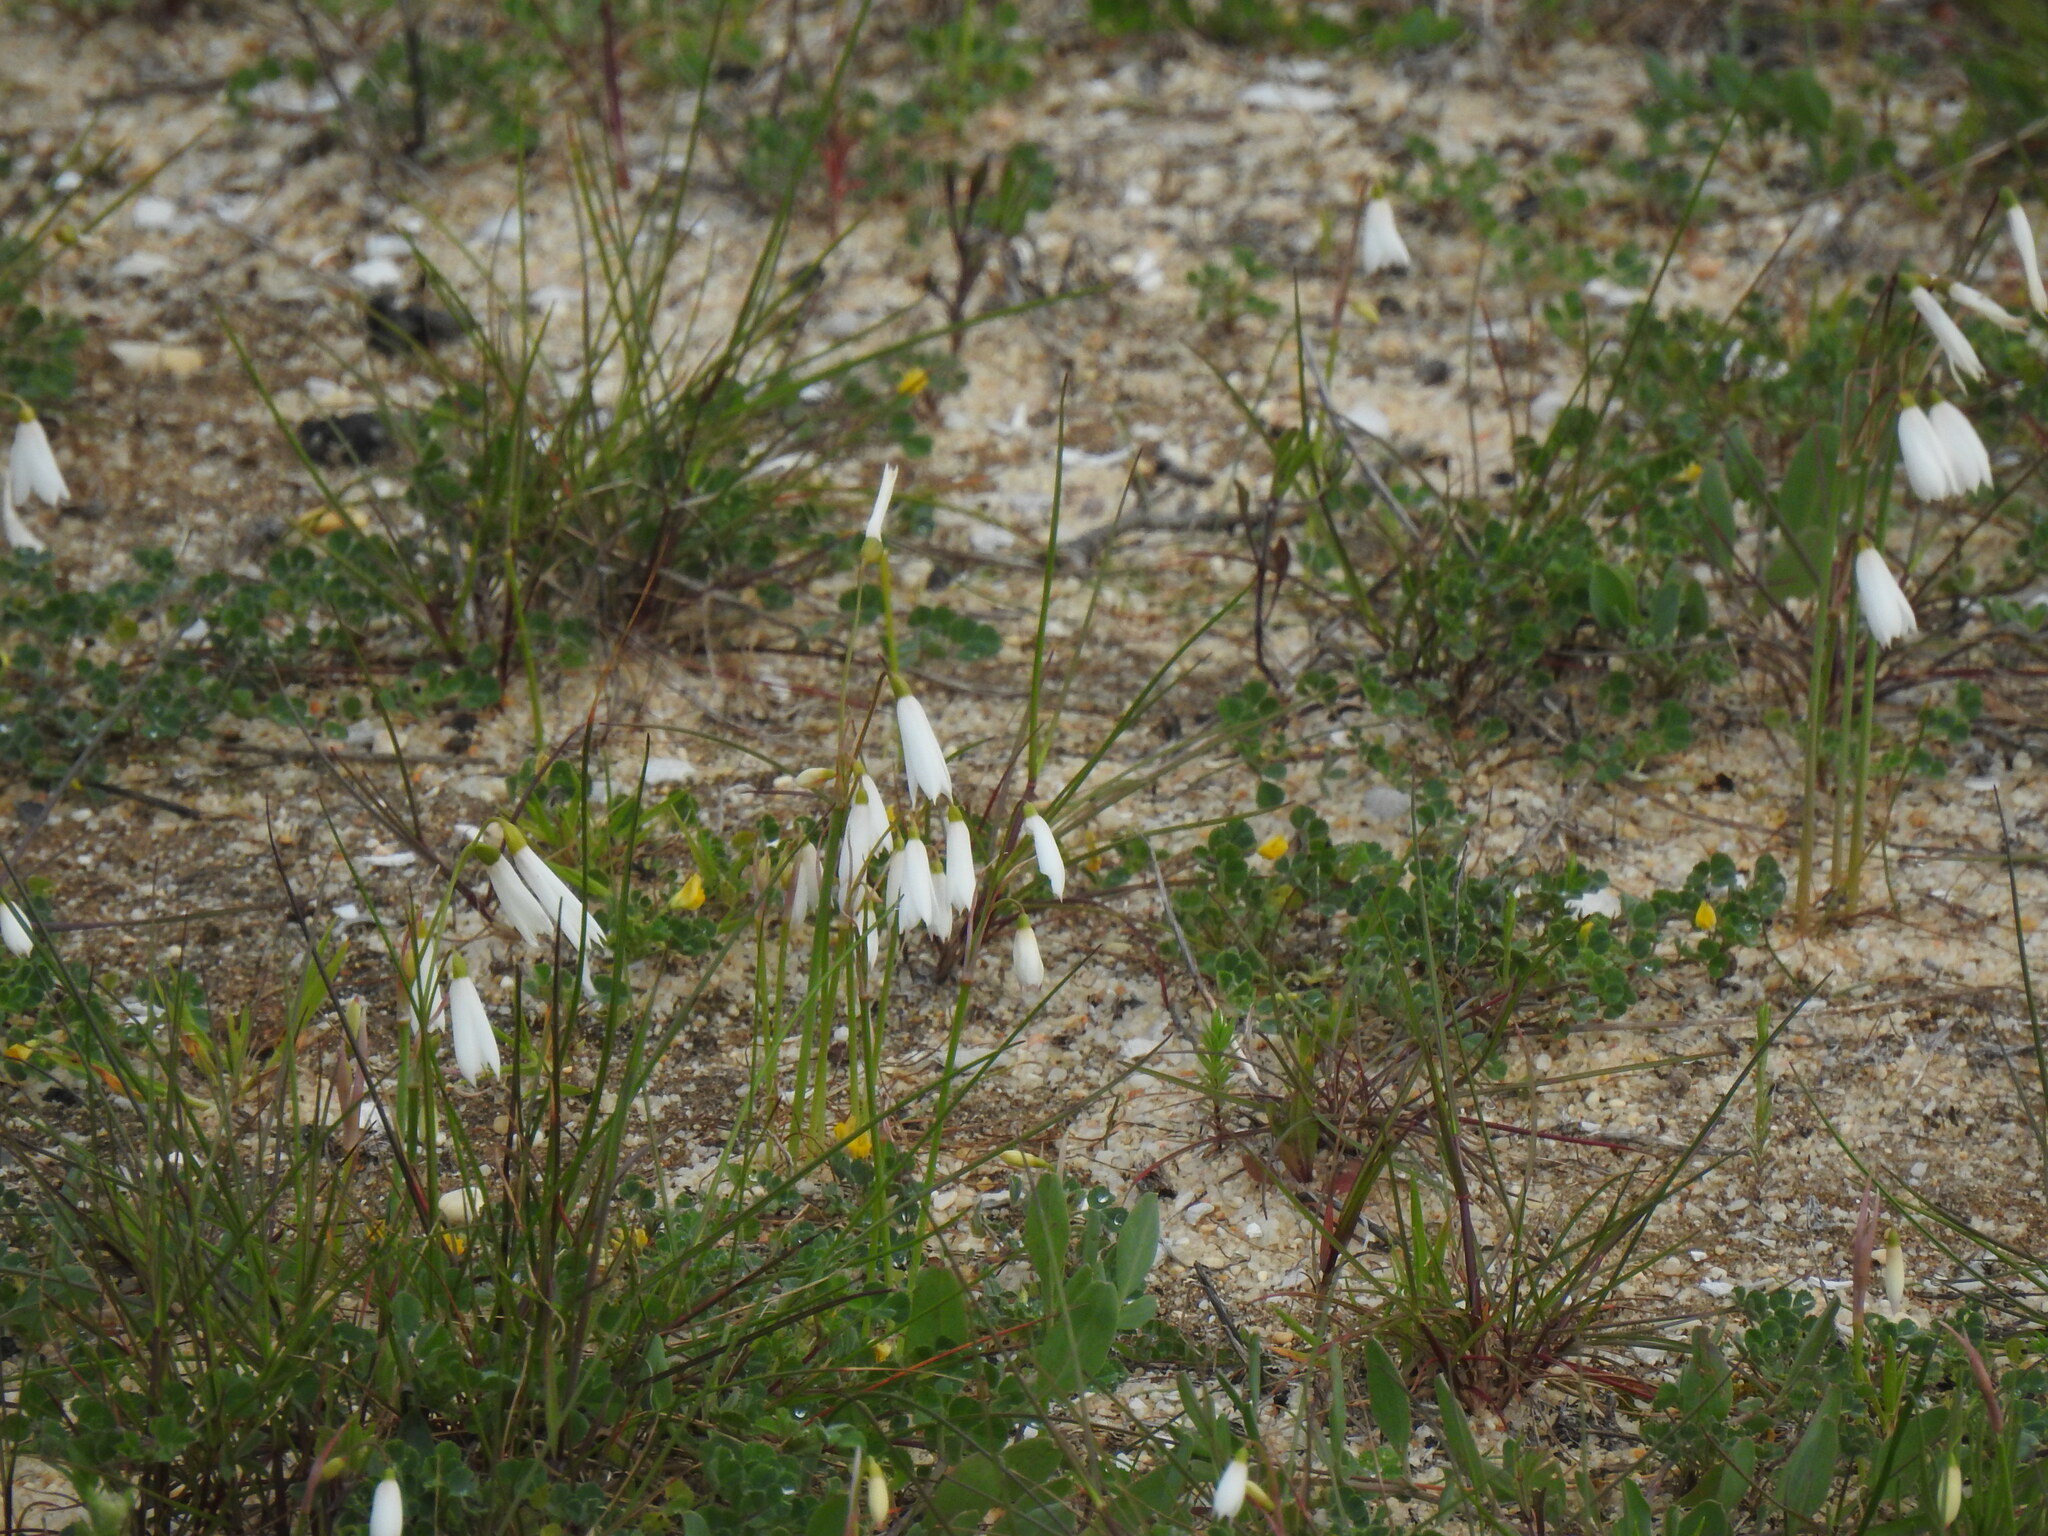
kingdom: Plantae
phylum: Tracheophyta
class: Liliopsida
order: Asparagales
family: Amaryllidaceae
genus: Acis
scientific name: Acis trichophylla
